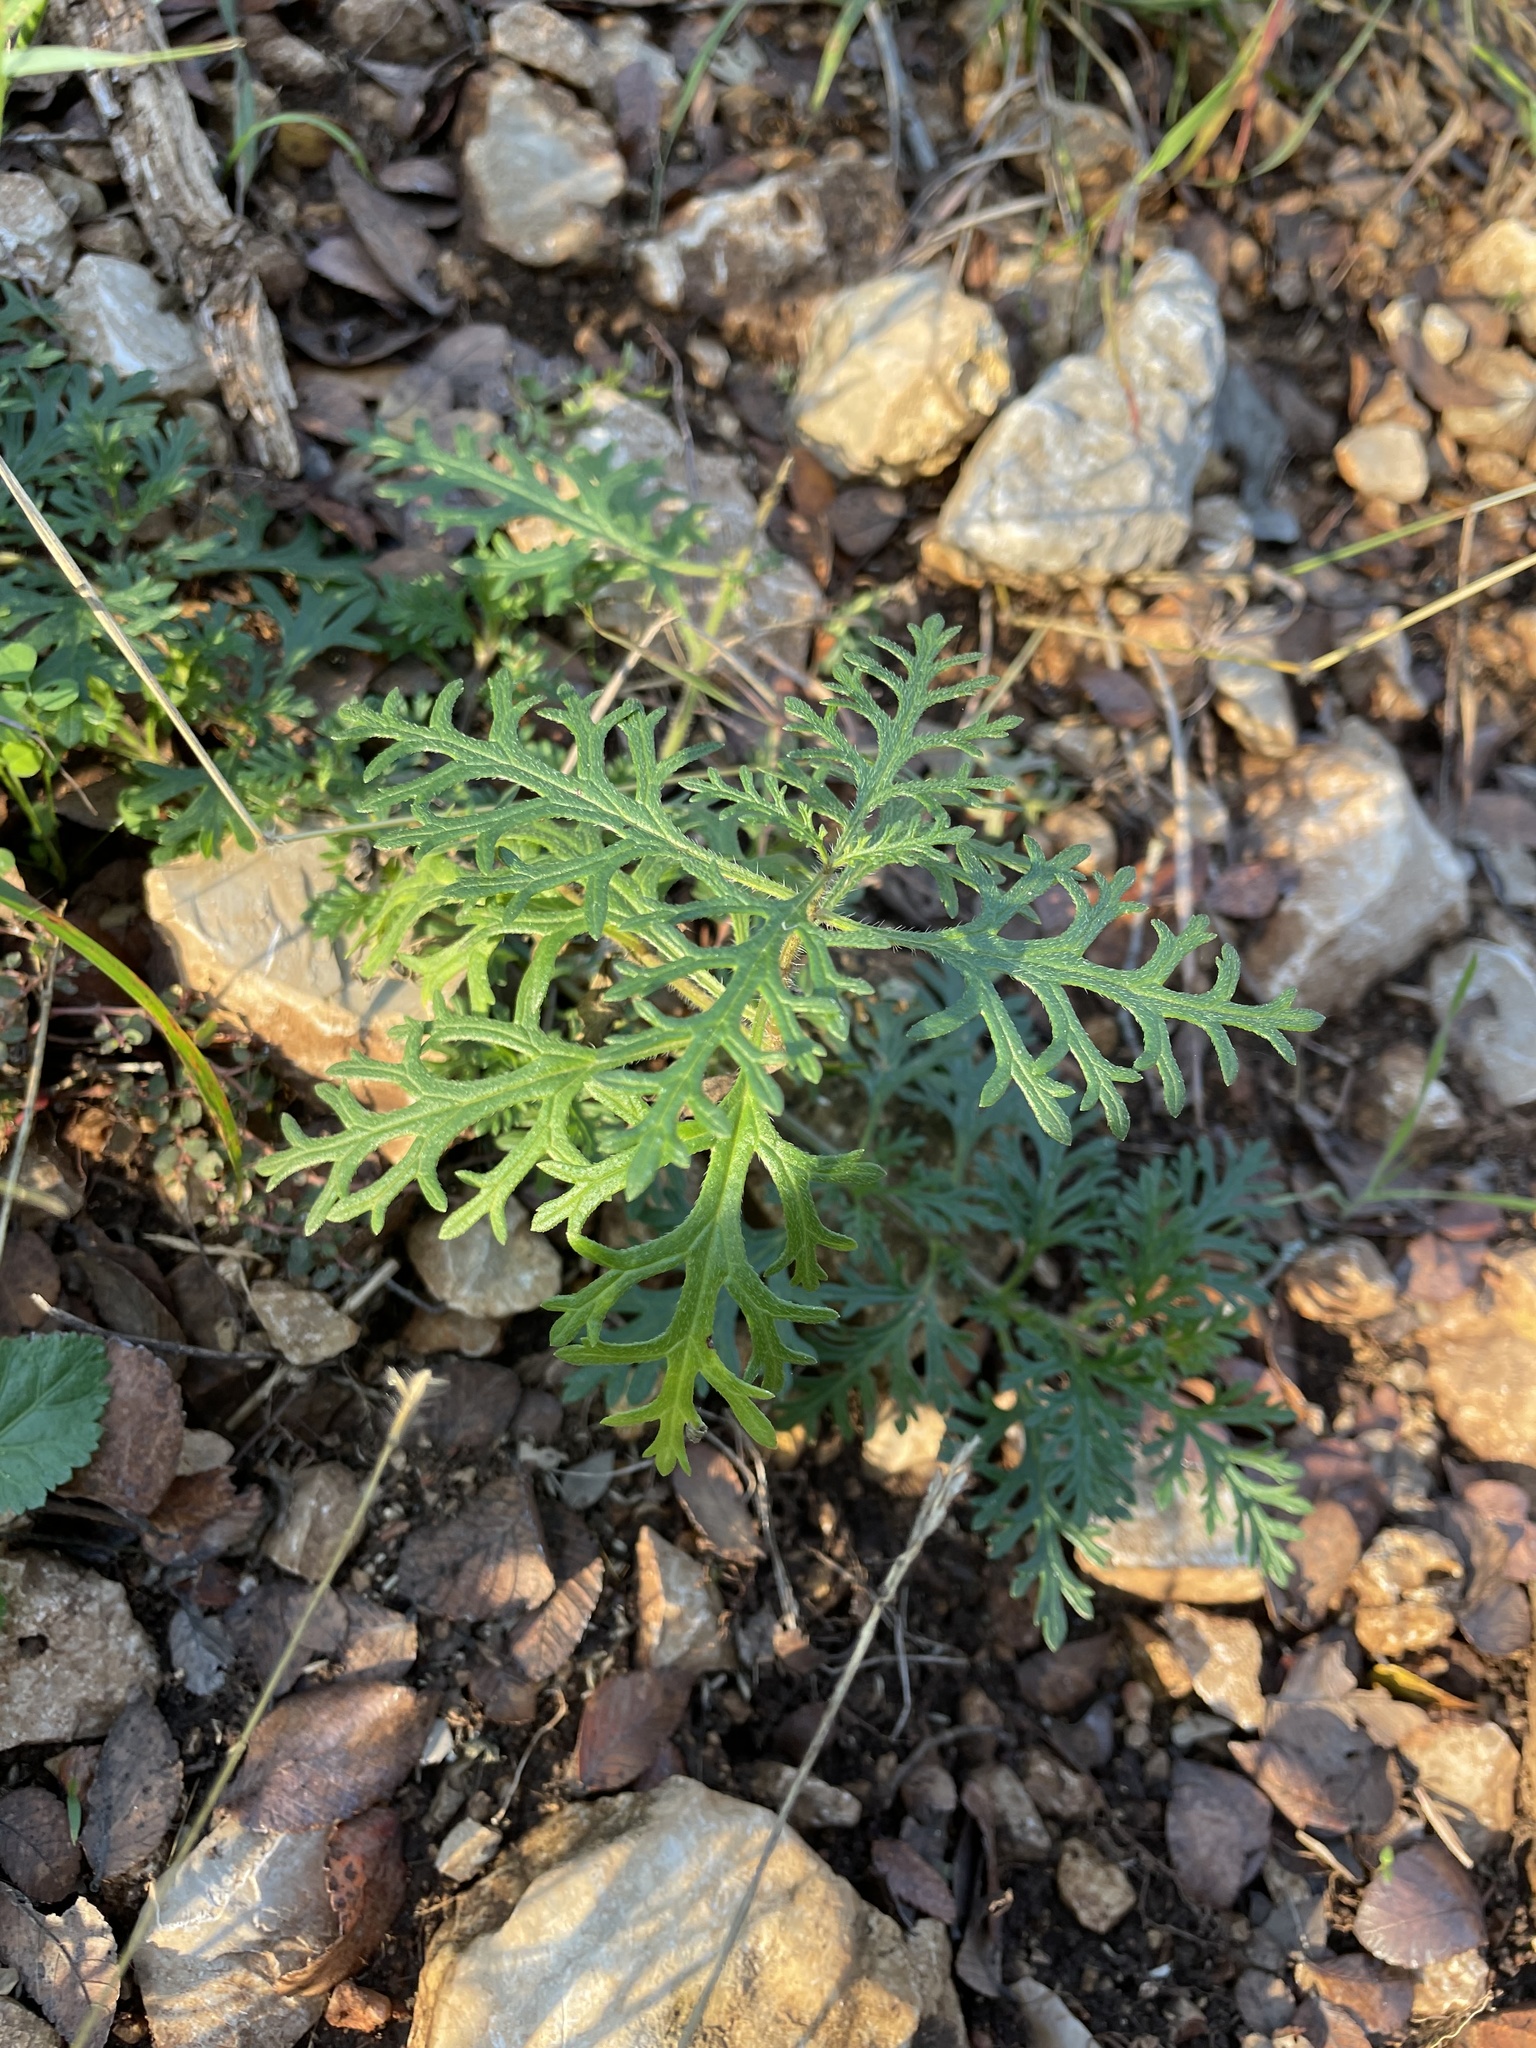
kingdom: Plantae
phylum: Tracheophyta
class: Magnoliopsida
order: Lamiales
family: Verbenaceae
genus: Verbena
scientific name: Verbena bipinnatifida
